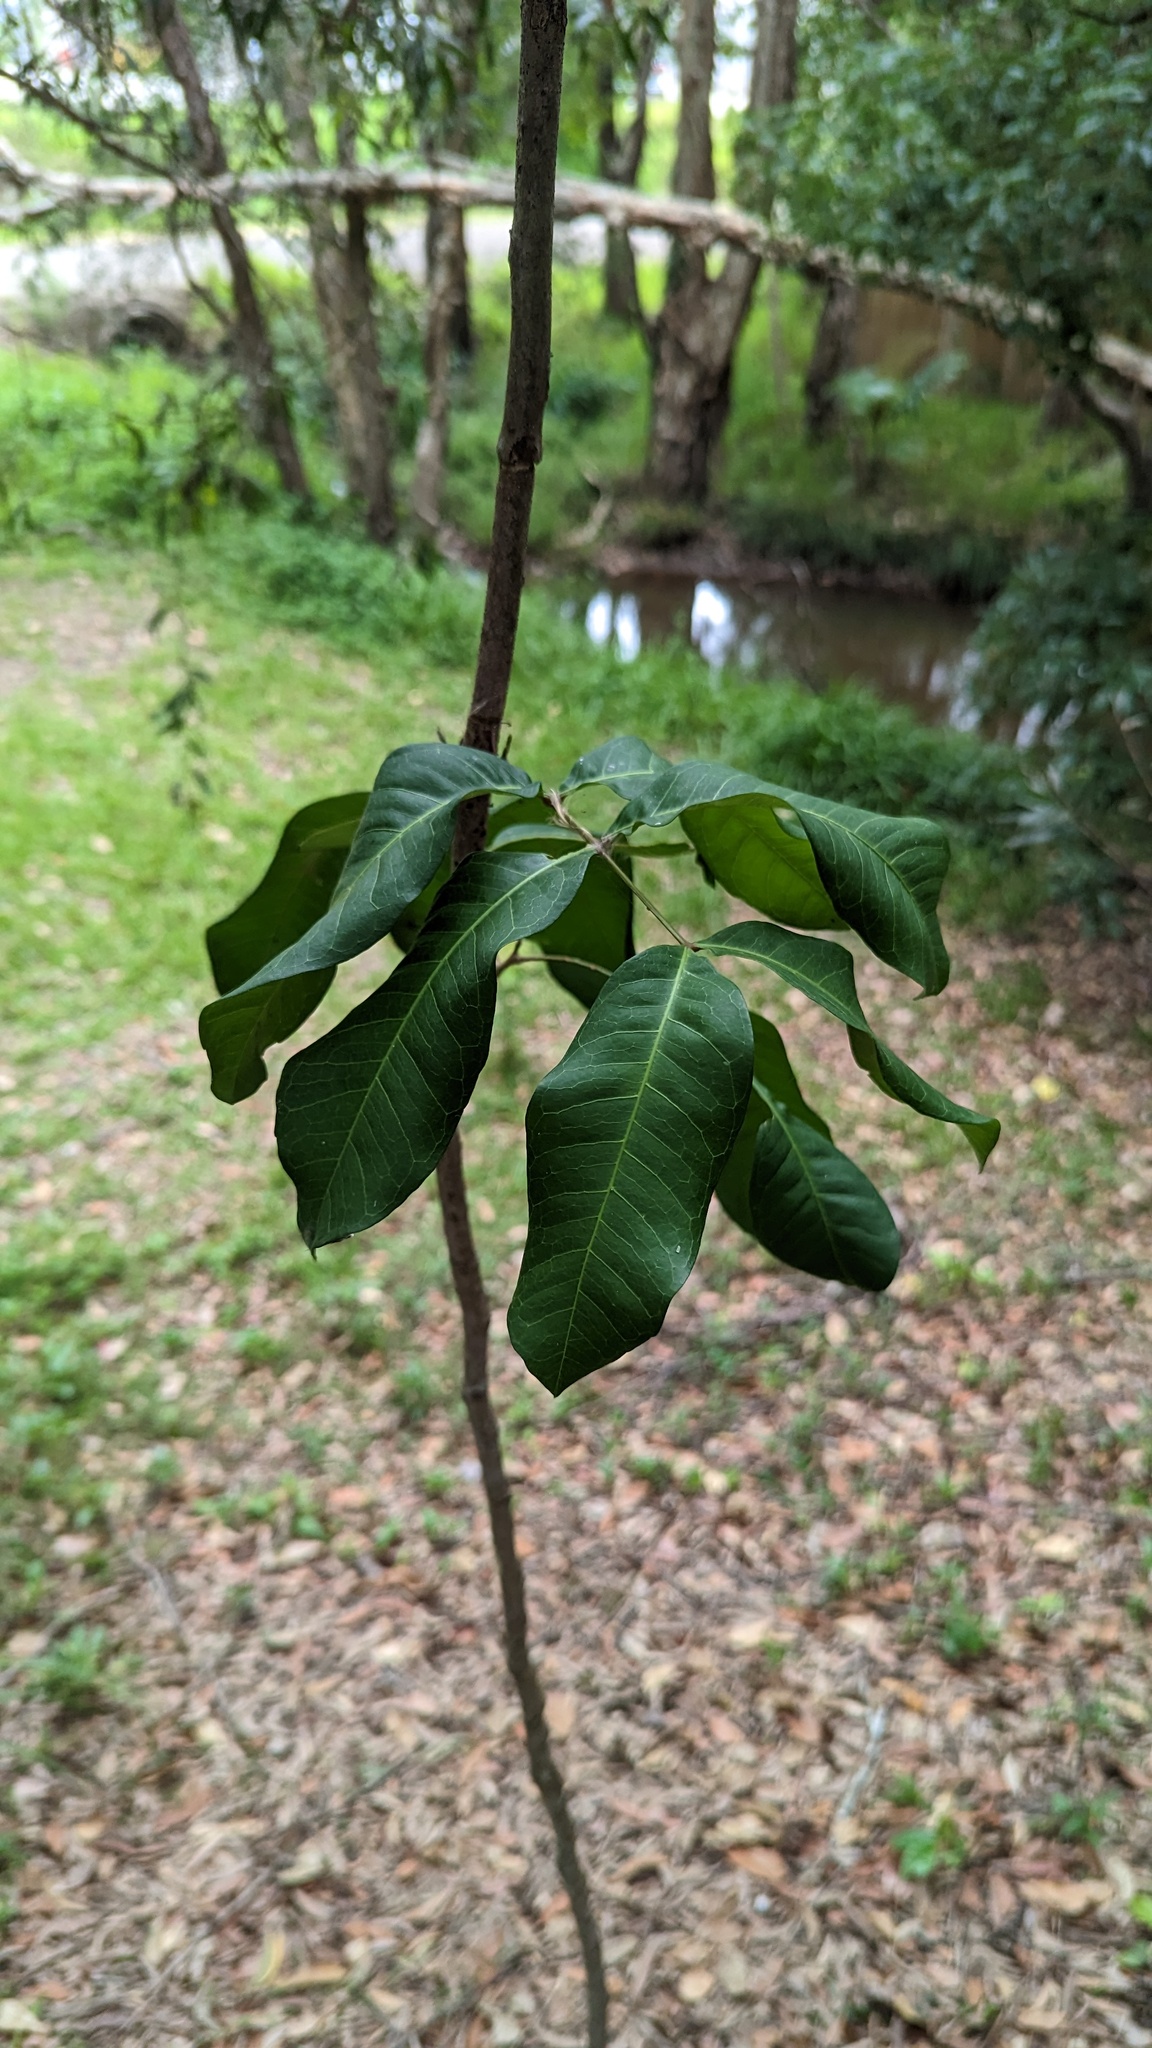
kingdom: Plantae
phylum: Tracheophyta
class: Magnoliopsida
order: Sapindales
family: Sapindaceae
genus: Cupaniopsis
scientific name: Cupaniopsis anacardioides
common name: Carrotwood
